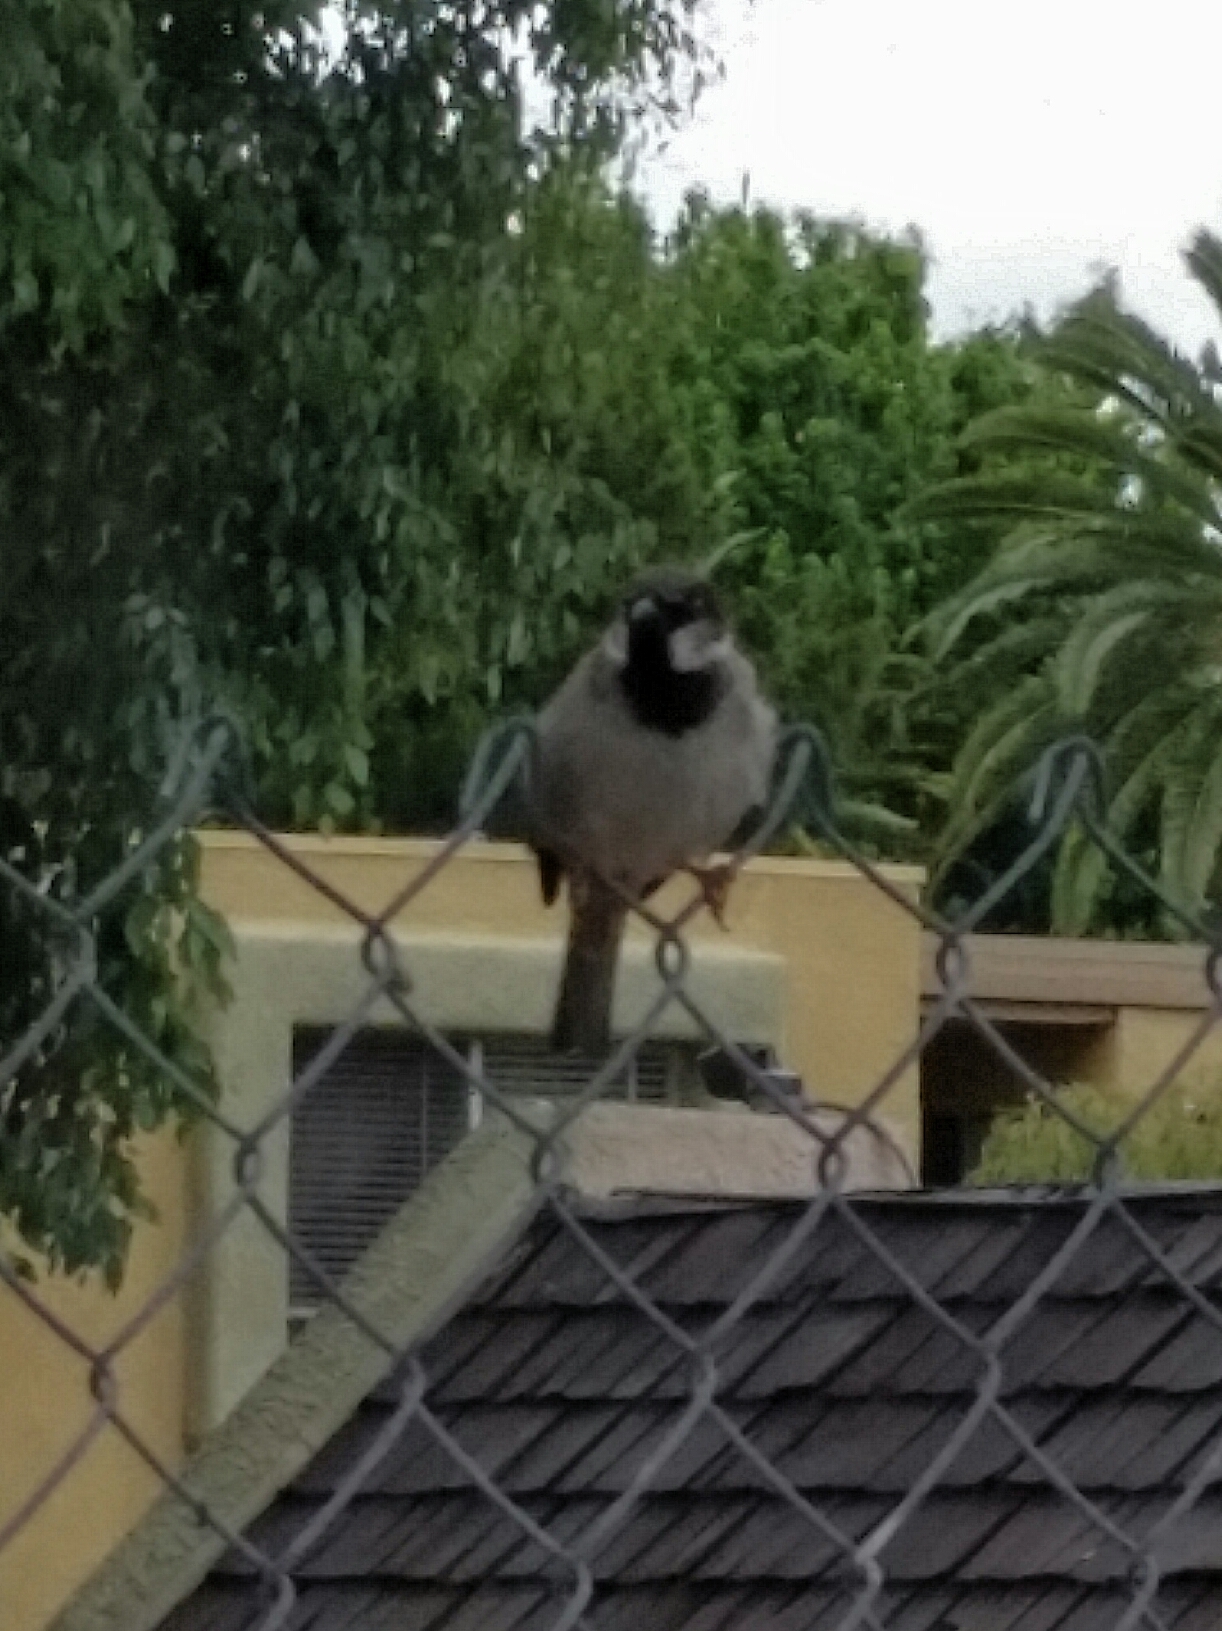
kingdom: Animalia
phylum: Chordata
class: Aves
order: Passeriformes
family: Passeridae
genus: Passer
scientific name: Passer domesticus
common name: House sparrow
